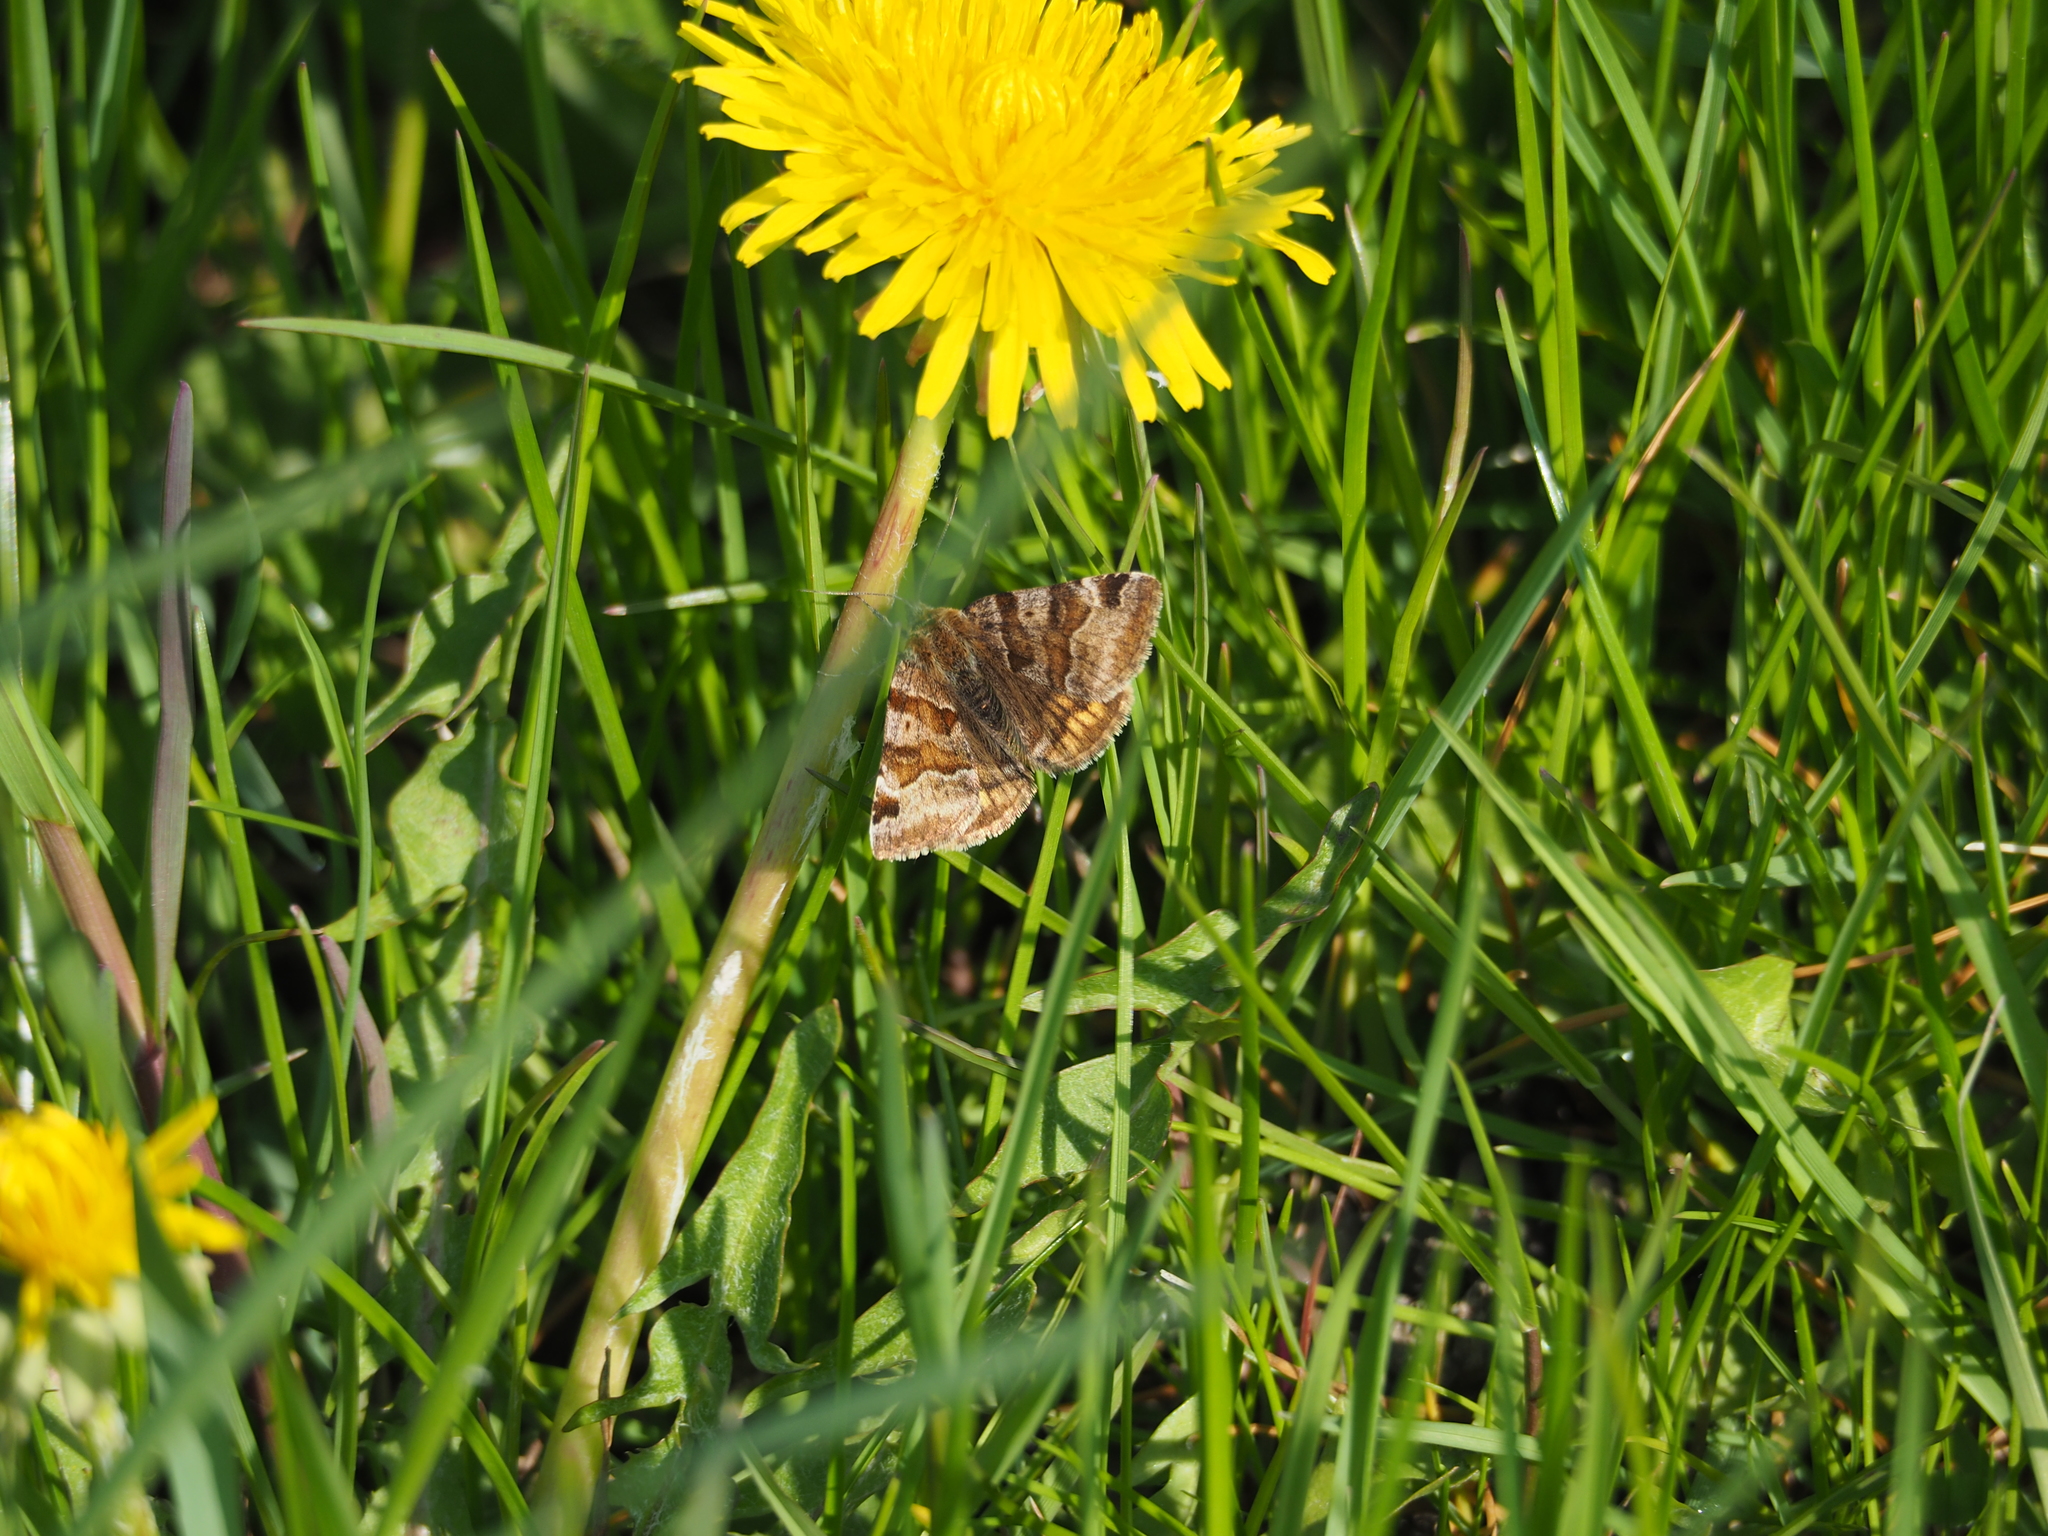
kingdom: Animalia
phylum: Arthropoda
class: Insecta
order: Lepidoptera
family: Erebidae
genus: Euclidia
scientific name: Euclidia glyphica
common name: Burnet companion
